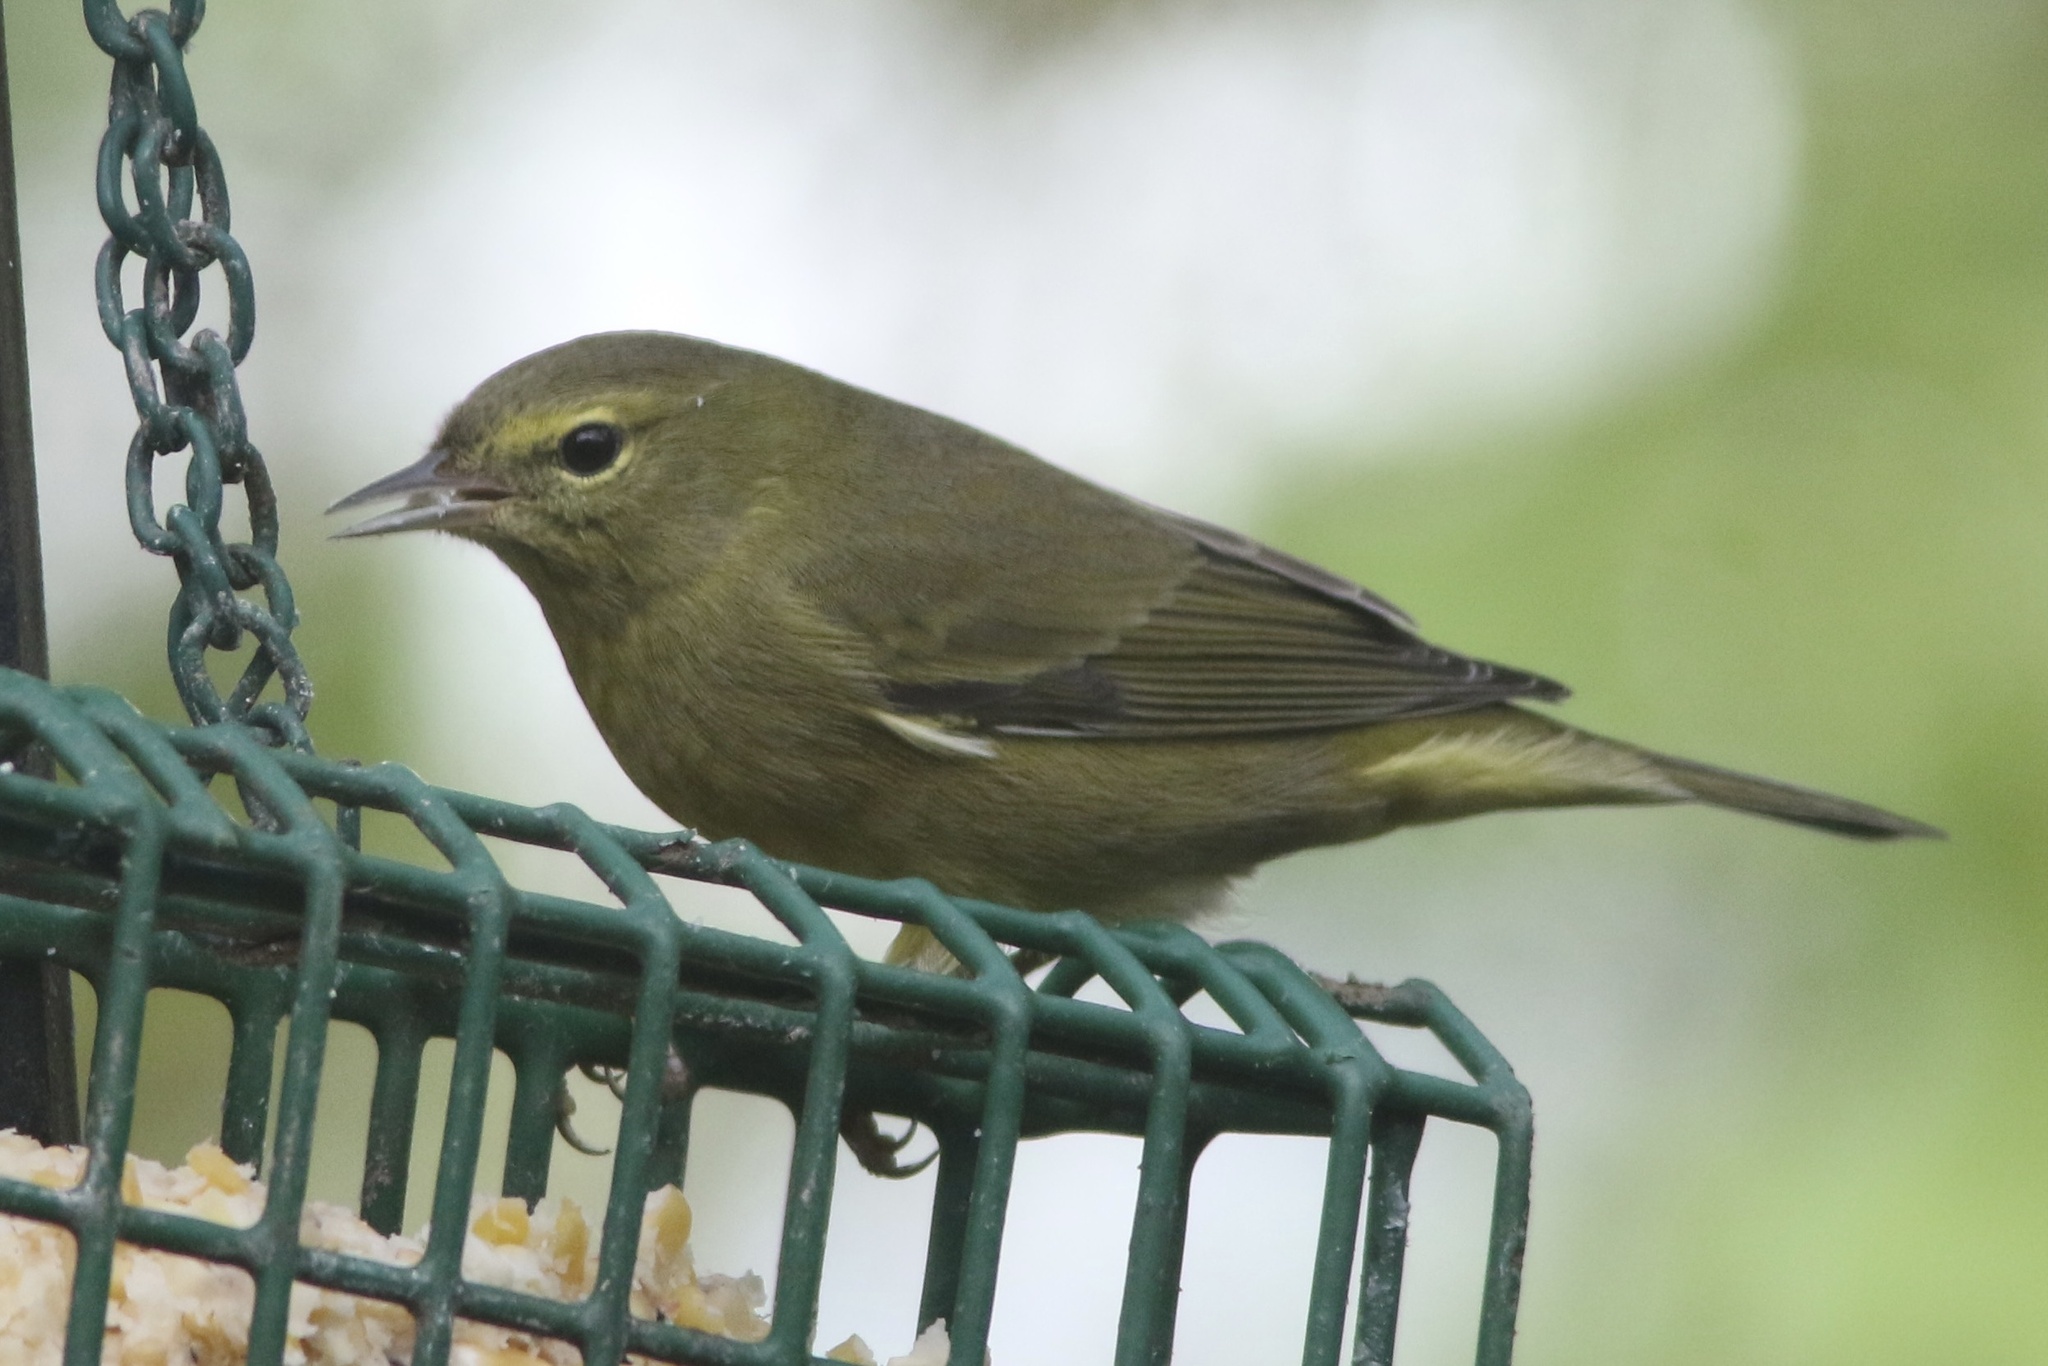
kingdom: Animalia
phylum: Chordata
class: Aves
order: Passeriformes
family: Parulidae
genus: Leiothlypis
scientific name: Leiothlypis celata
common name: Orange-crowned warbler
